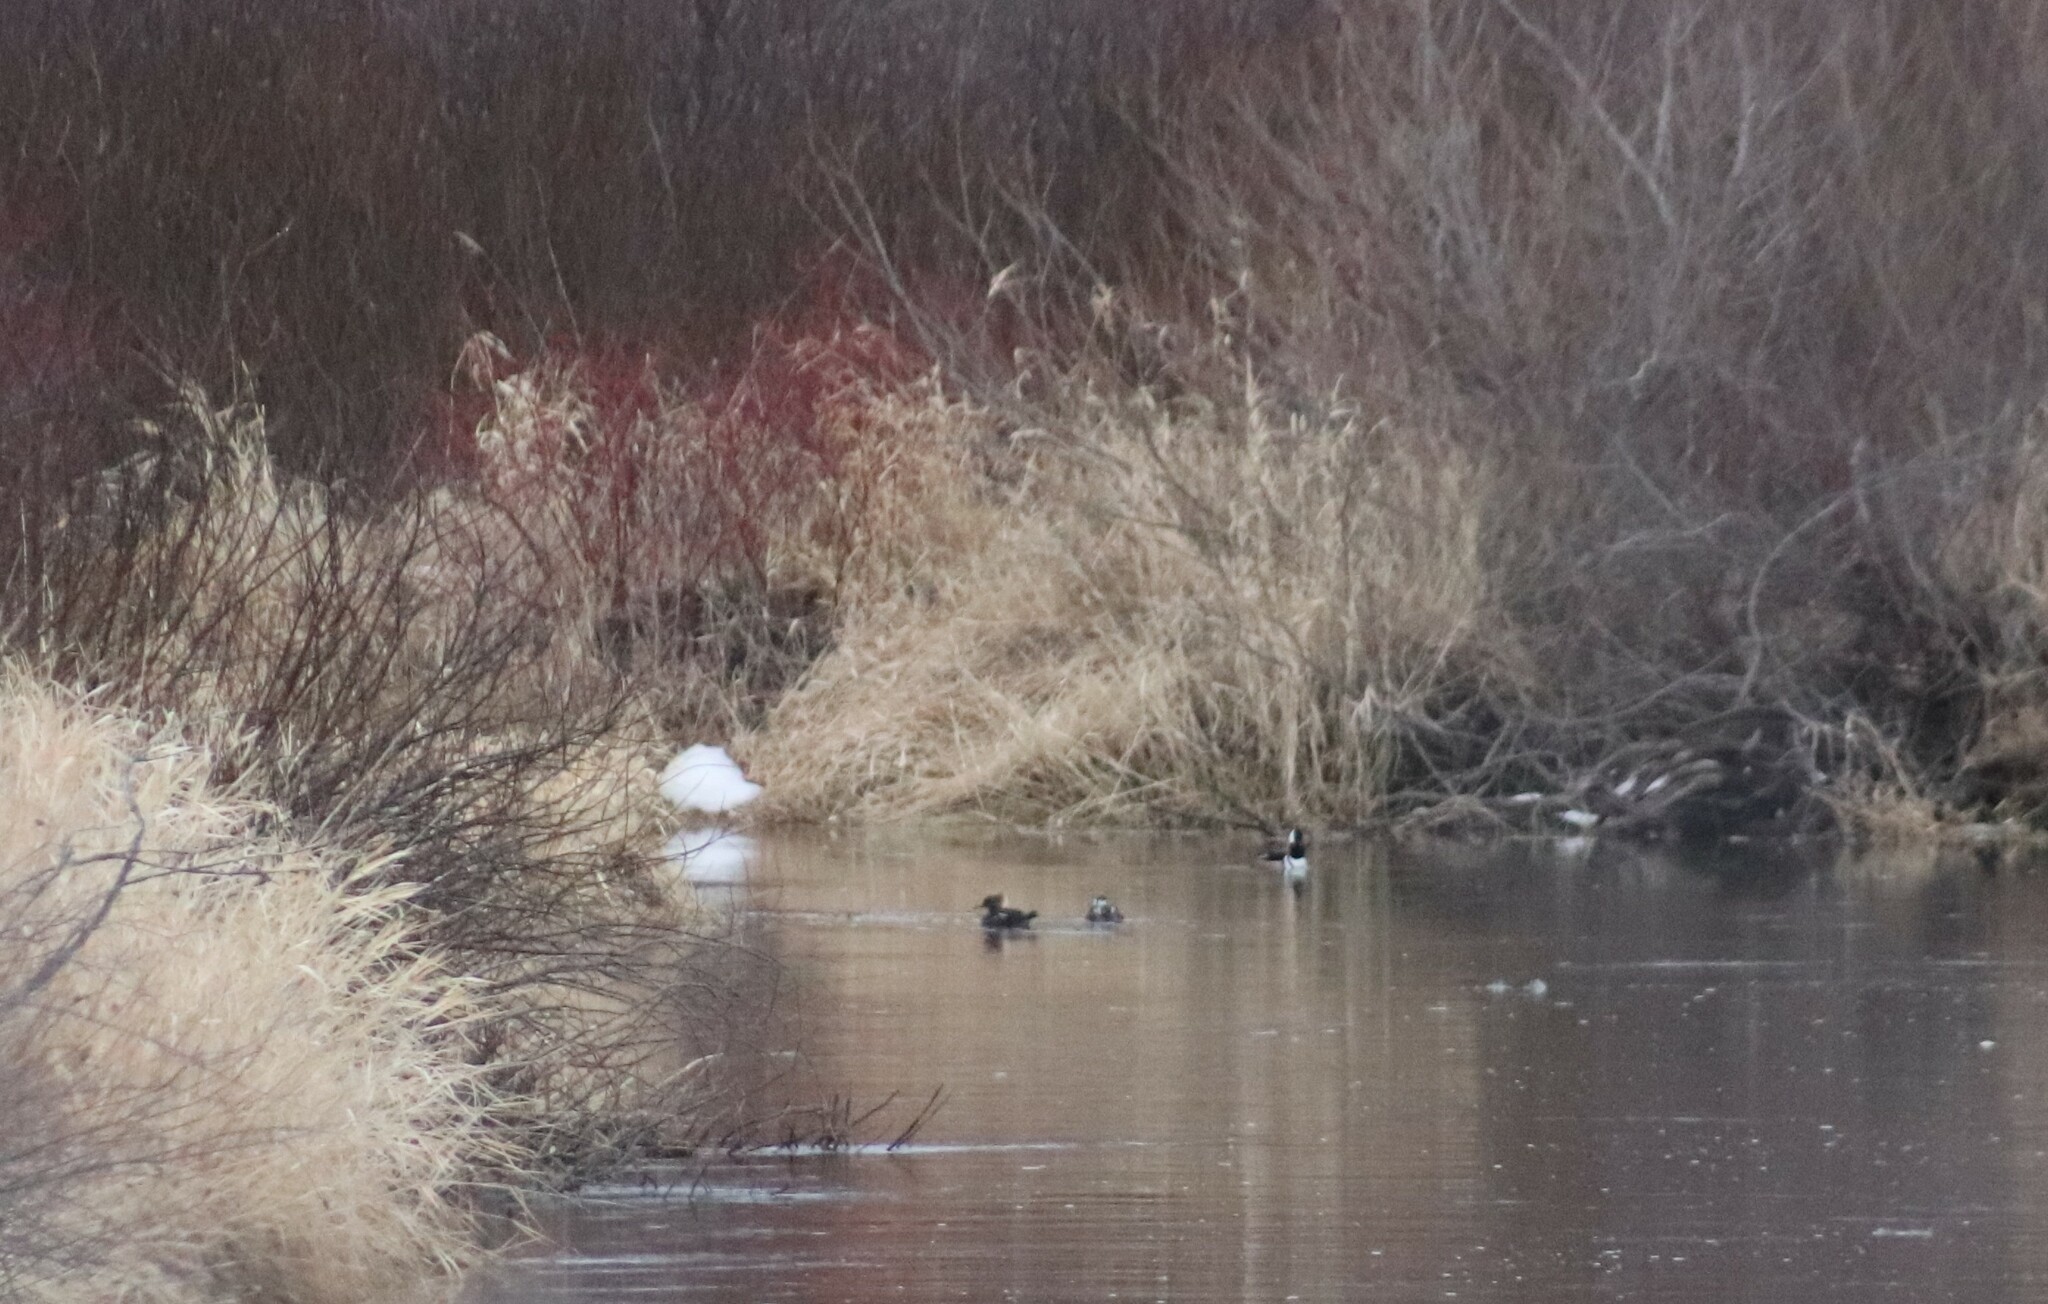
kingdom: Animalia
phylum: Chordata
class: Aves
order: Anseriformes
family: Anatidae
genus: Lophodytes
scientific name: Lophodytes cucullatus
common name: Hooded merganser
